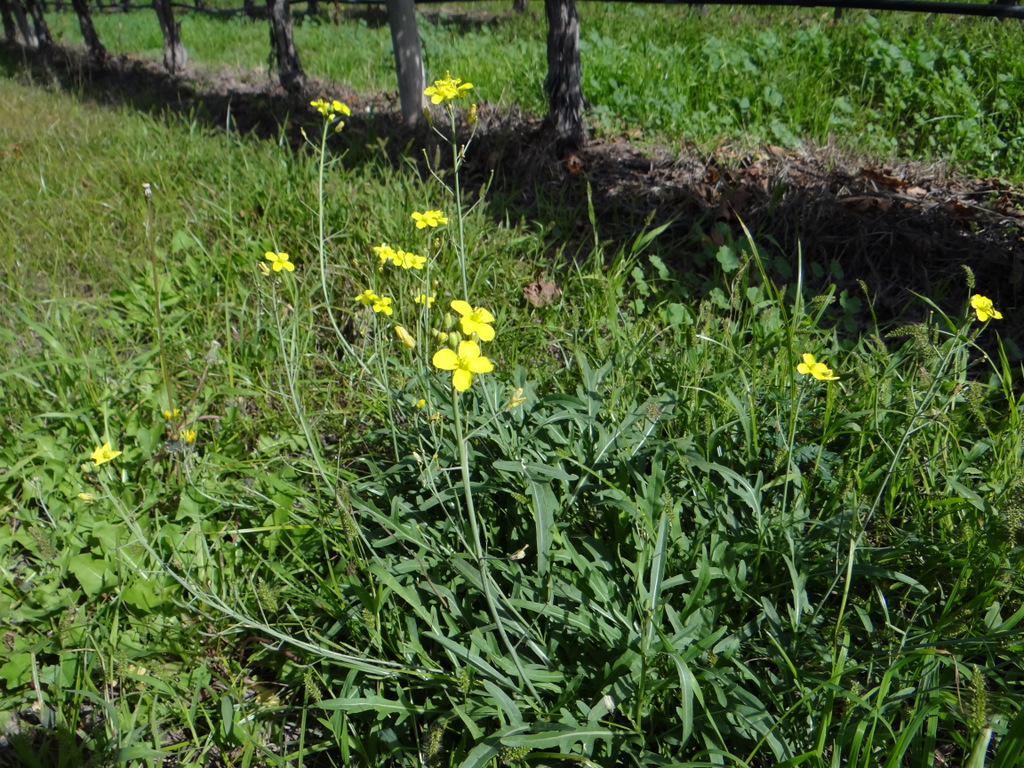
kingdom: Plantae
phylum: Tracheophyta
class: Magnoliopsida
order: Brassicales
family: Brassicaceae
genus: Diplotaxis
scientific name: Diplotaxis tenuifolia
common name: Perennial wall-rocket
